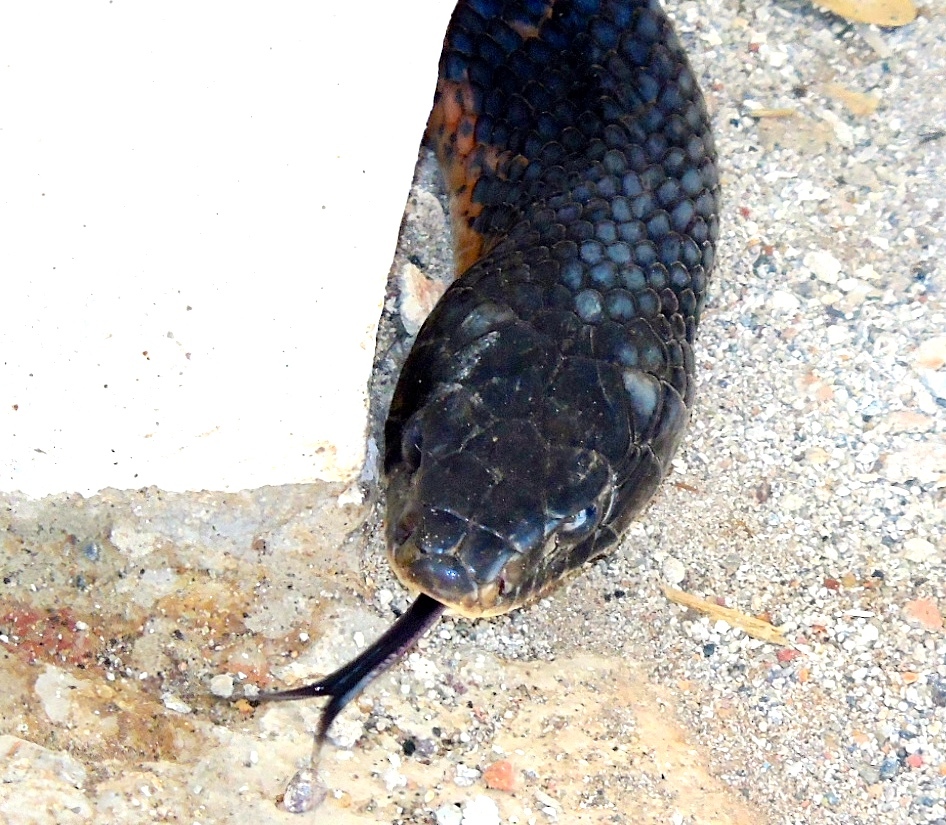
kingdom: Animalia
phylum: Chordata
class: Squamata
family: Colubridae
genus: Drymarchon
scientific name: Drymarchon melanurus
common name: Central american indigo snake
